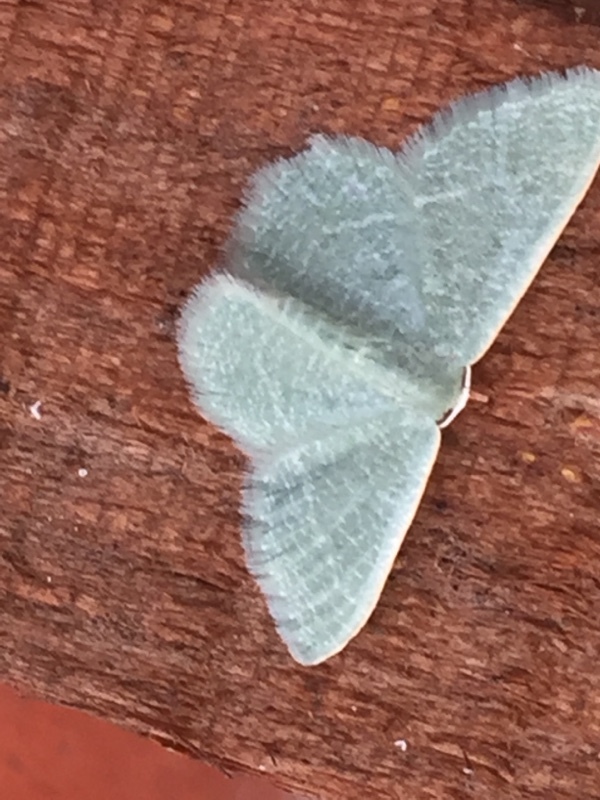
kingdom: Animalia
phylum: Arthropoda
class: Insecta
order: Lepidoptera
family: Geometridae
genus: Chlorissa
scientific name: Chlorissa etruscaria
